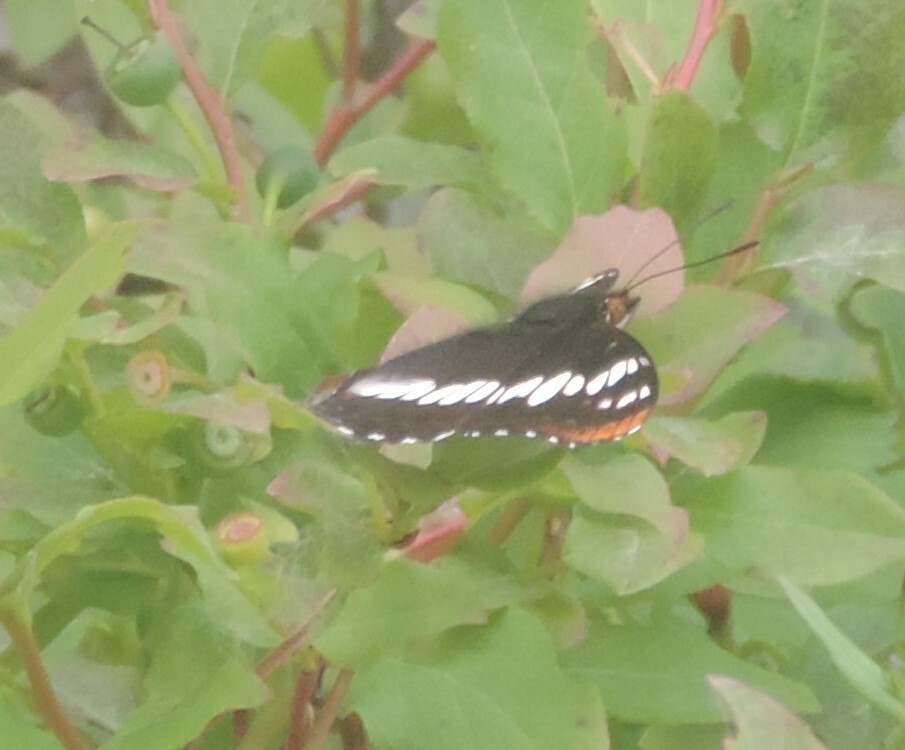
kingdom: Animalia
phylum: Arthropoda
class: Insecta
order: Lepidoptera
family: Nymphalidae
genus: Limenitis
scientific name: Limenitis lorquini
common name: Lorquin's admiral
